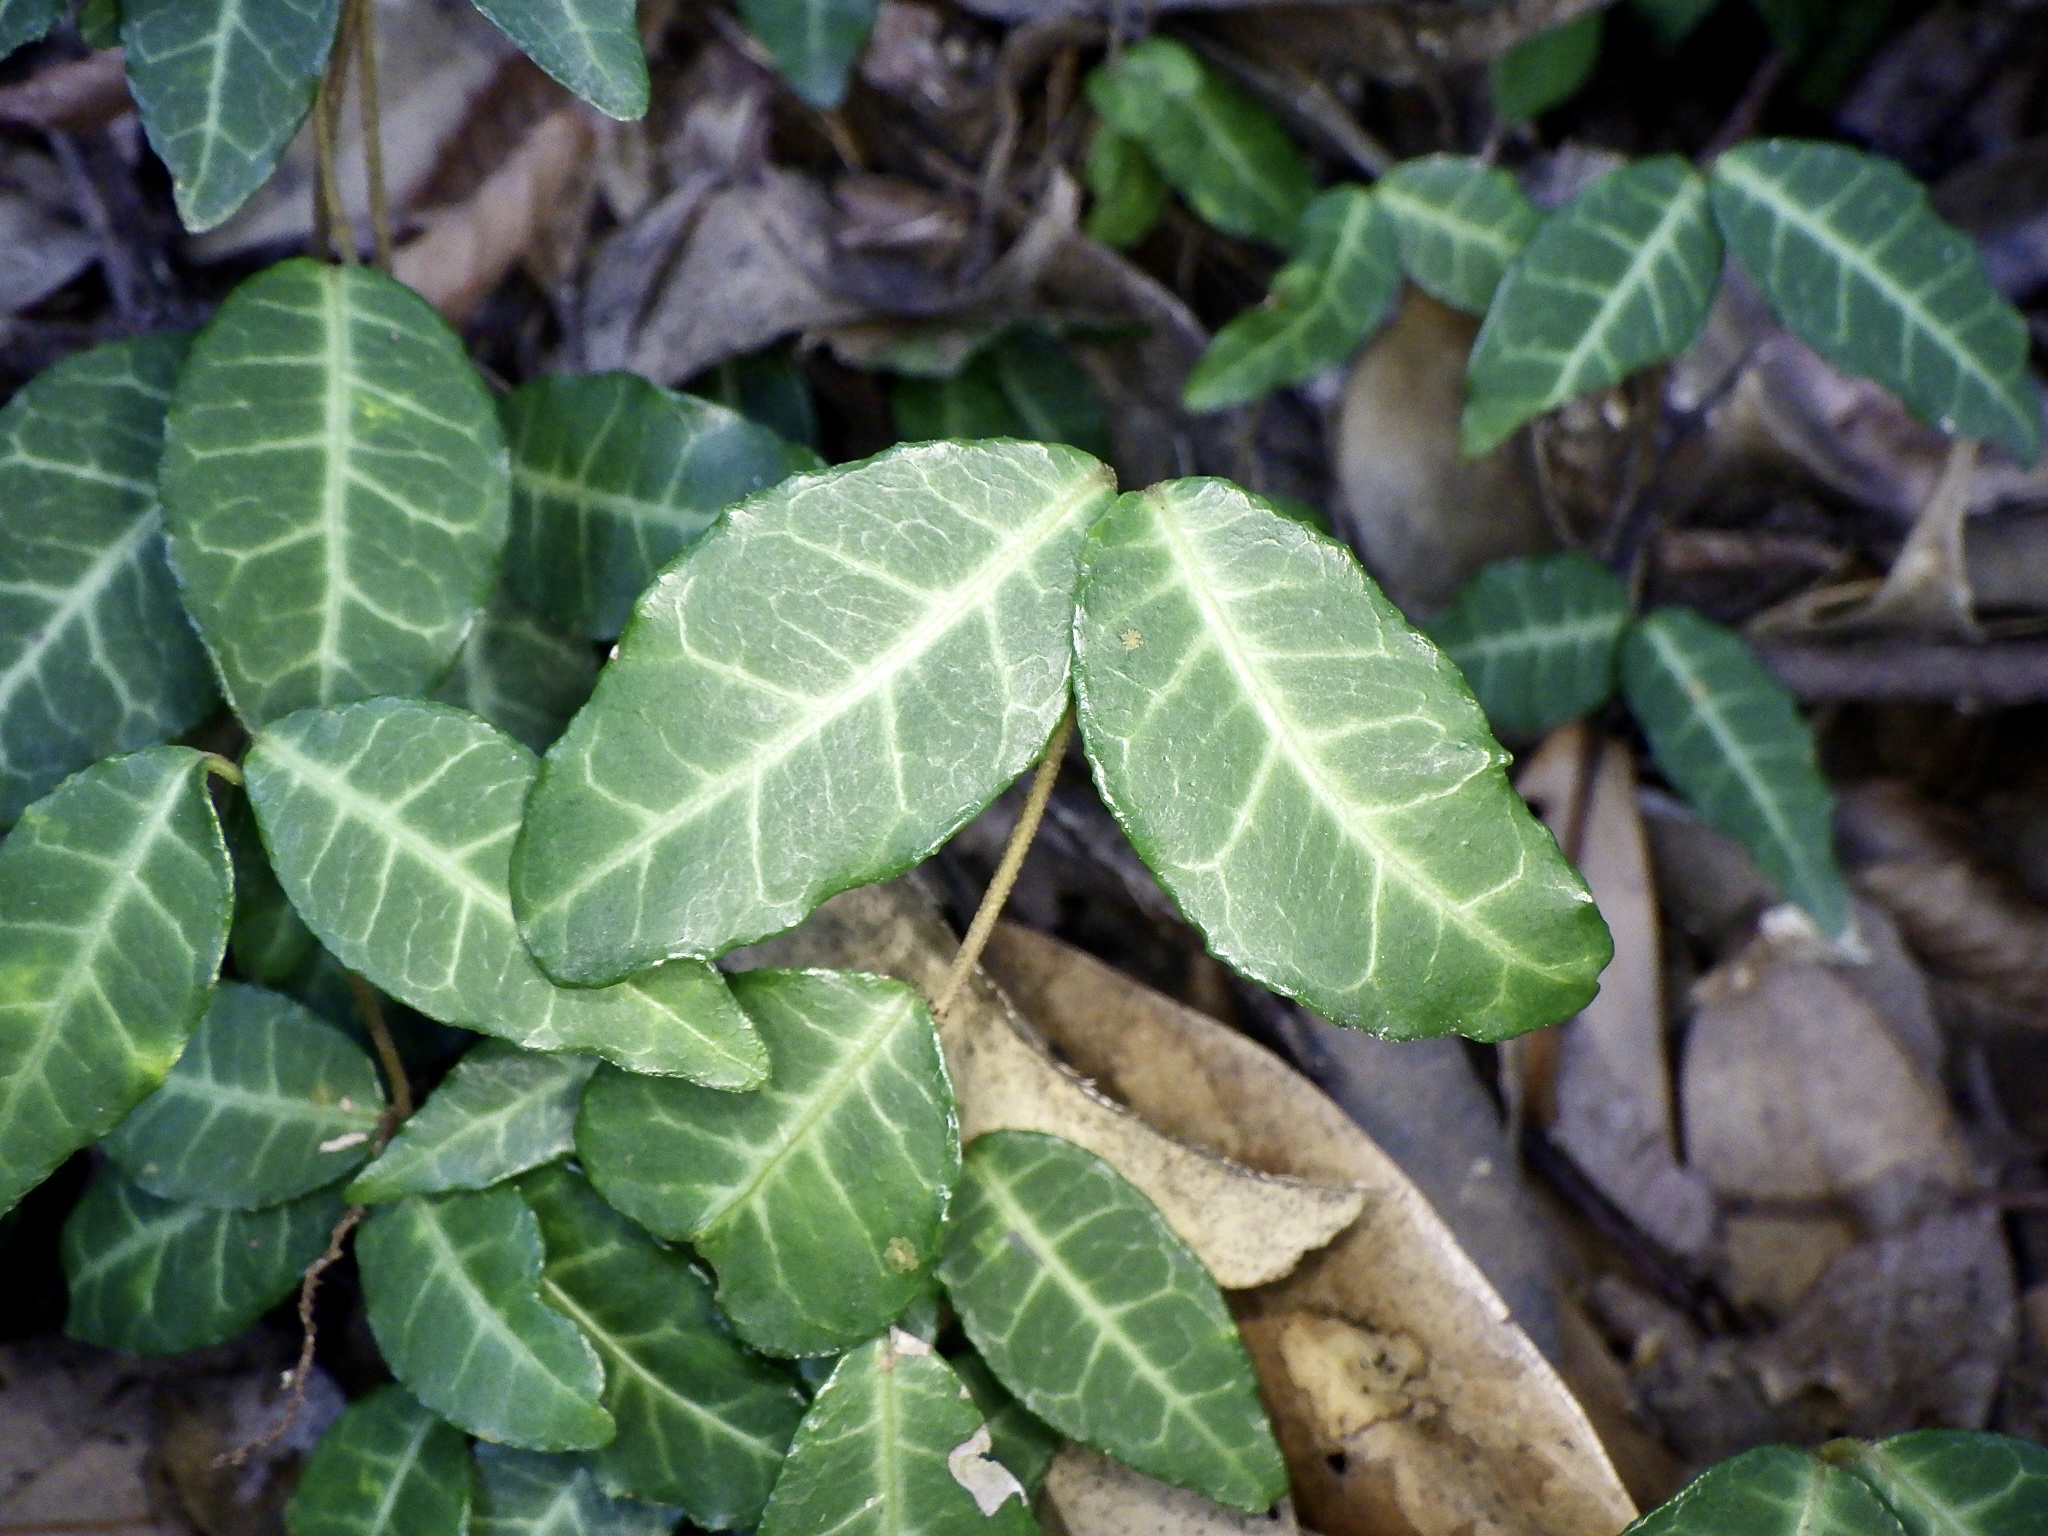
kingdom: Plantae
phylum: Tracheophyta
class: Magnoliopsida
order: Gentianales
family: Apocynaceae
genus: Trachelospermum
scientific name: Trachelospermum asiaticum
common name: Asiatic jasmine
